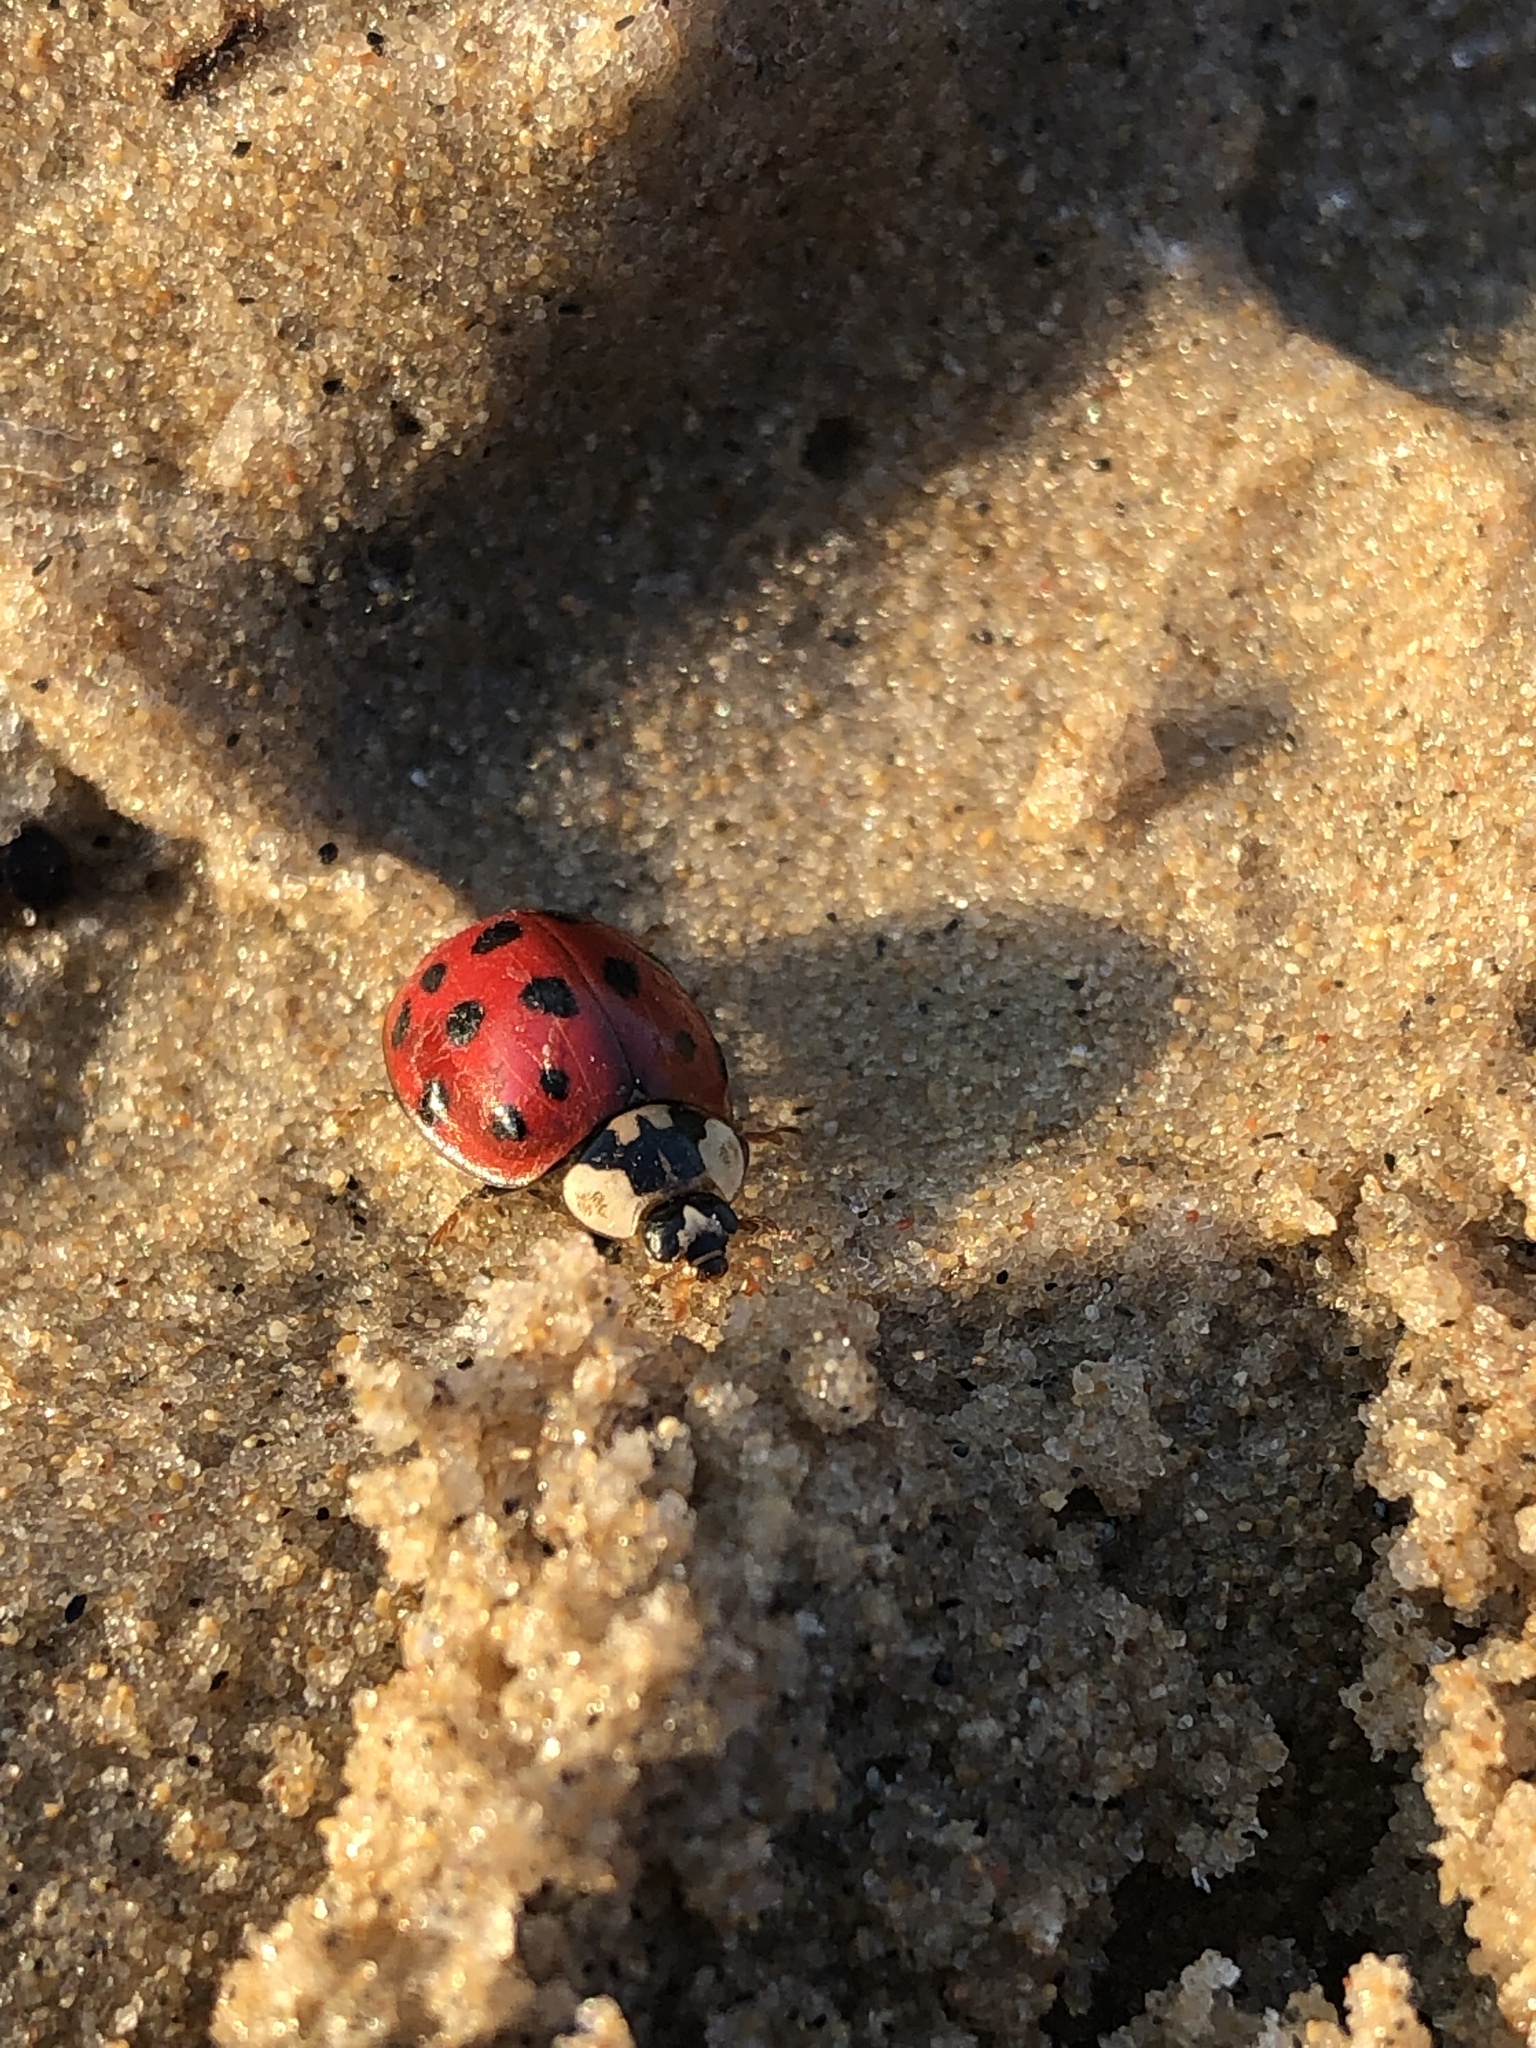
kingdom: Animalia
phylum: Arthropoda
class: Insecta
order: Coleoptera
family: Coccinellidae
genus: Harmonia
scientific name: Harmonia axyridis
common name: Harlequin ladybird
